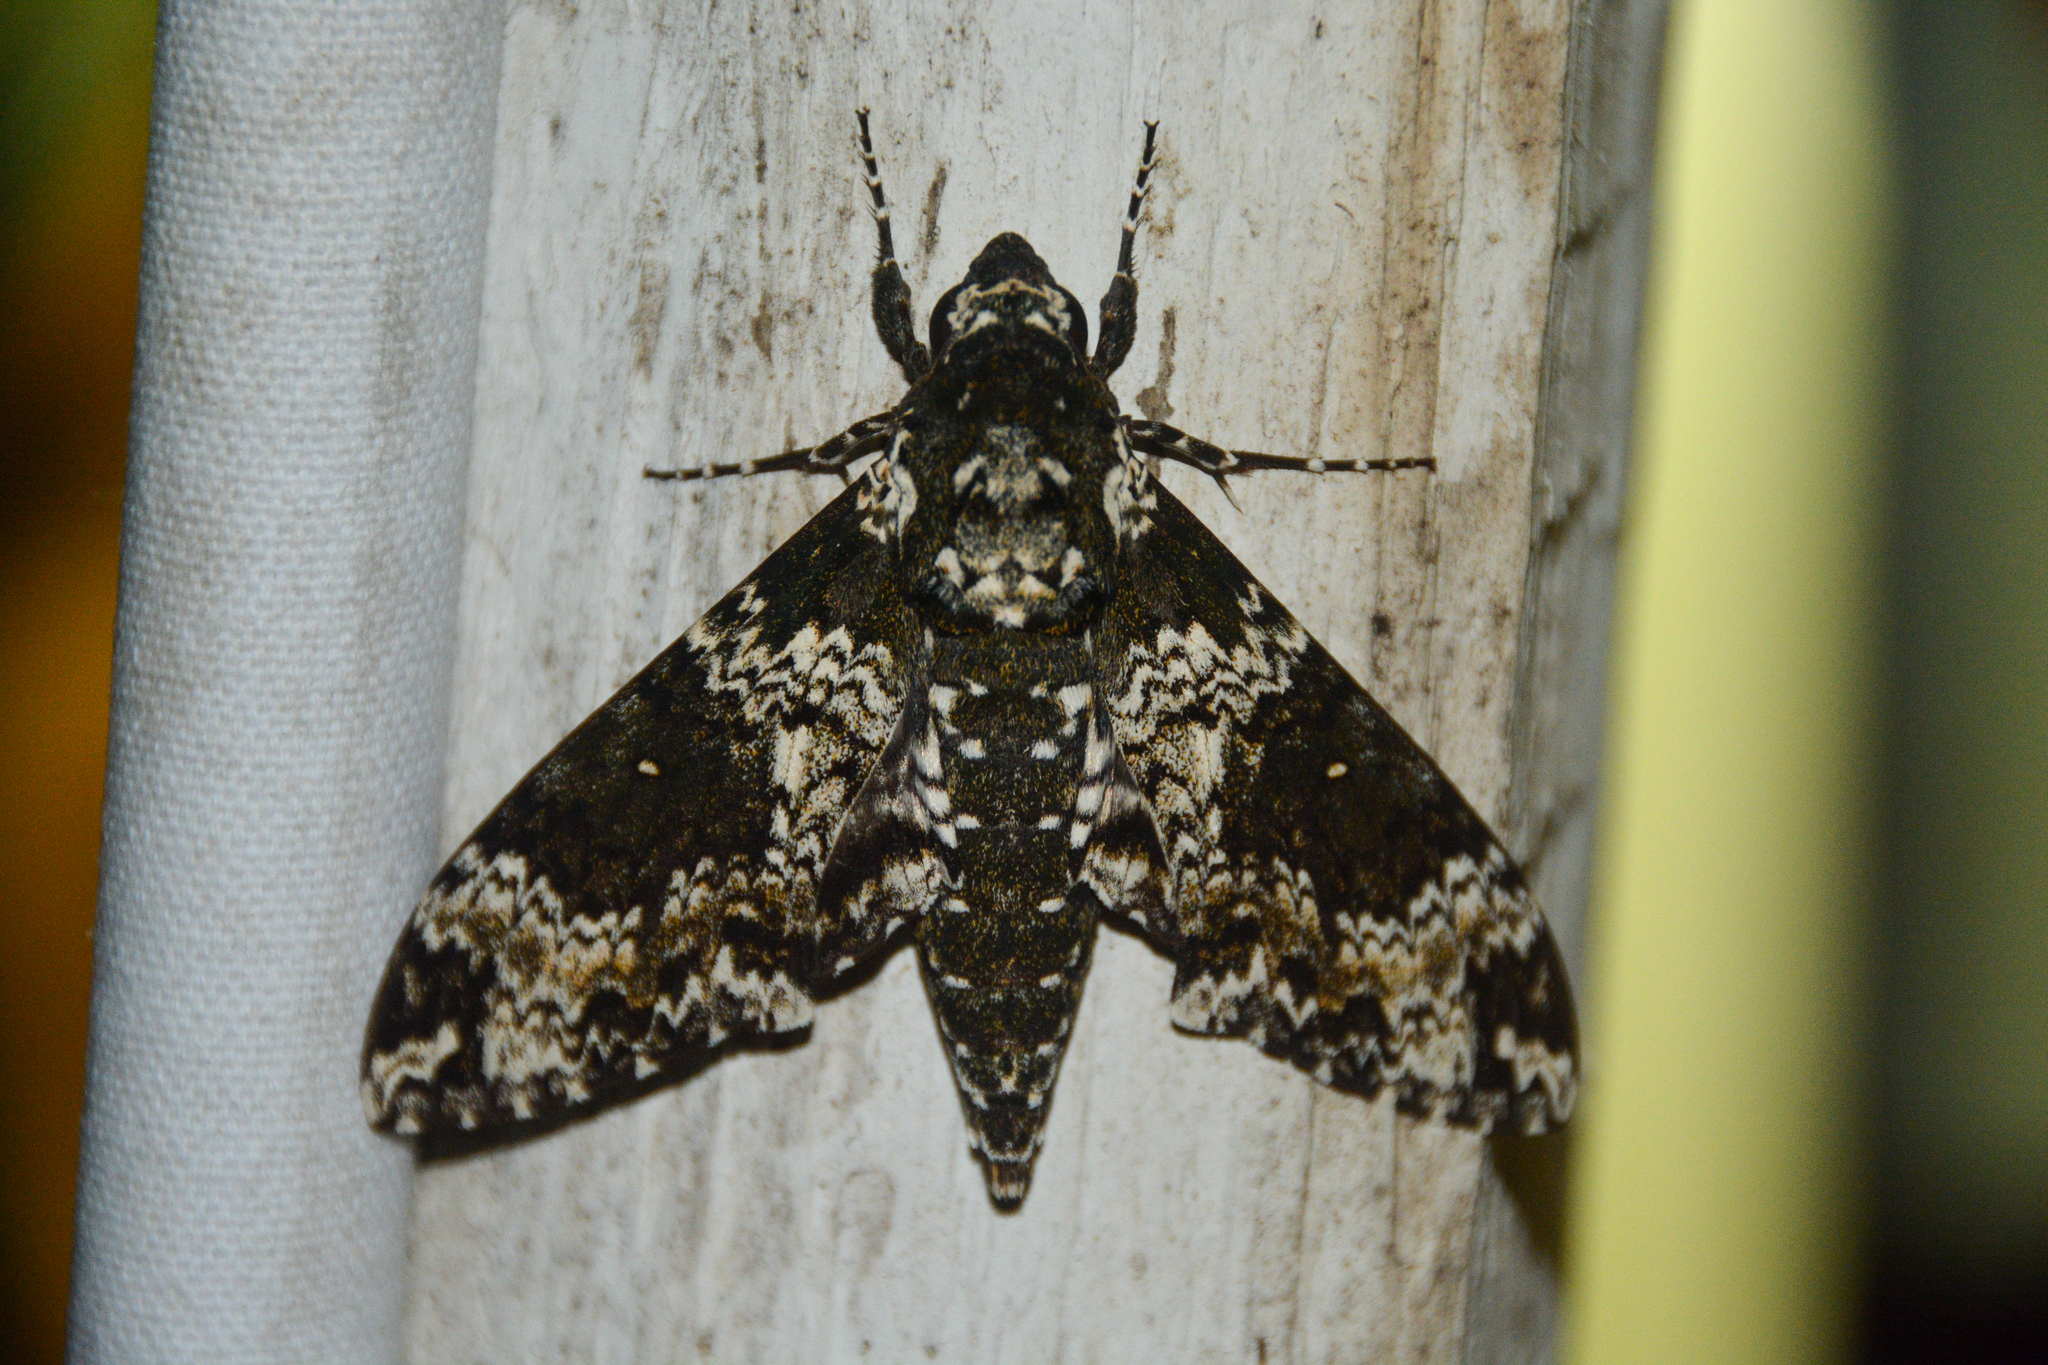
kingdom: Animalia
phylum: Arthropoda
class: Insecta
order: Lepidoptera
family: Sphingidae
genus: Manduca
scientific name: Manduca rustica
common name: Rustic sphinx
